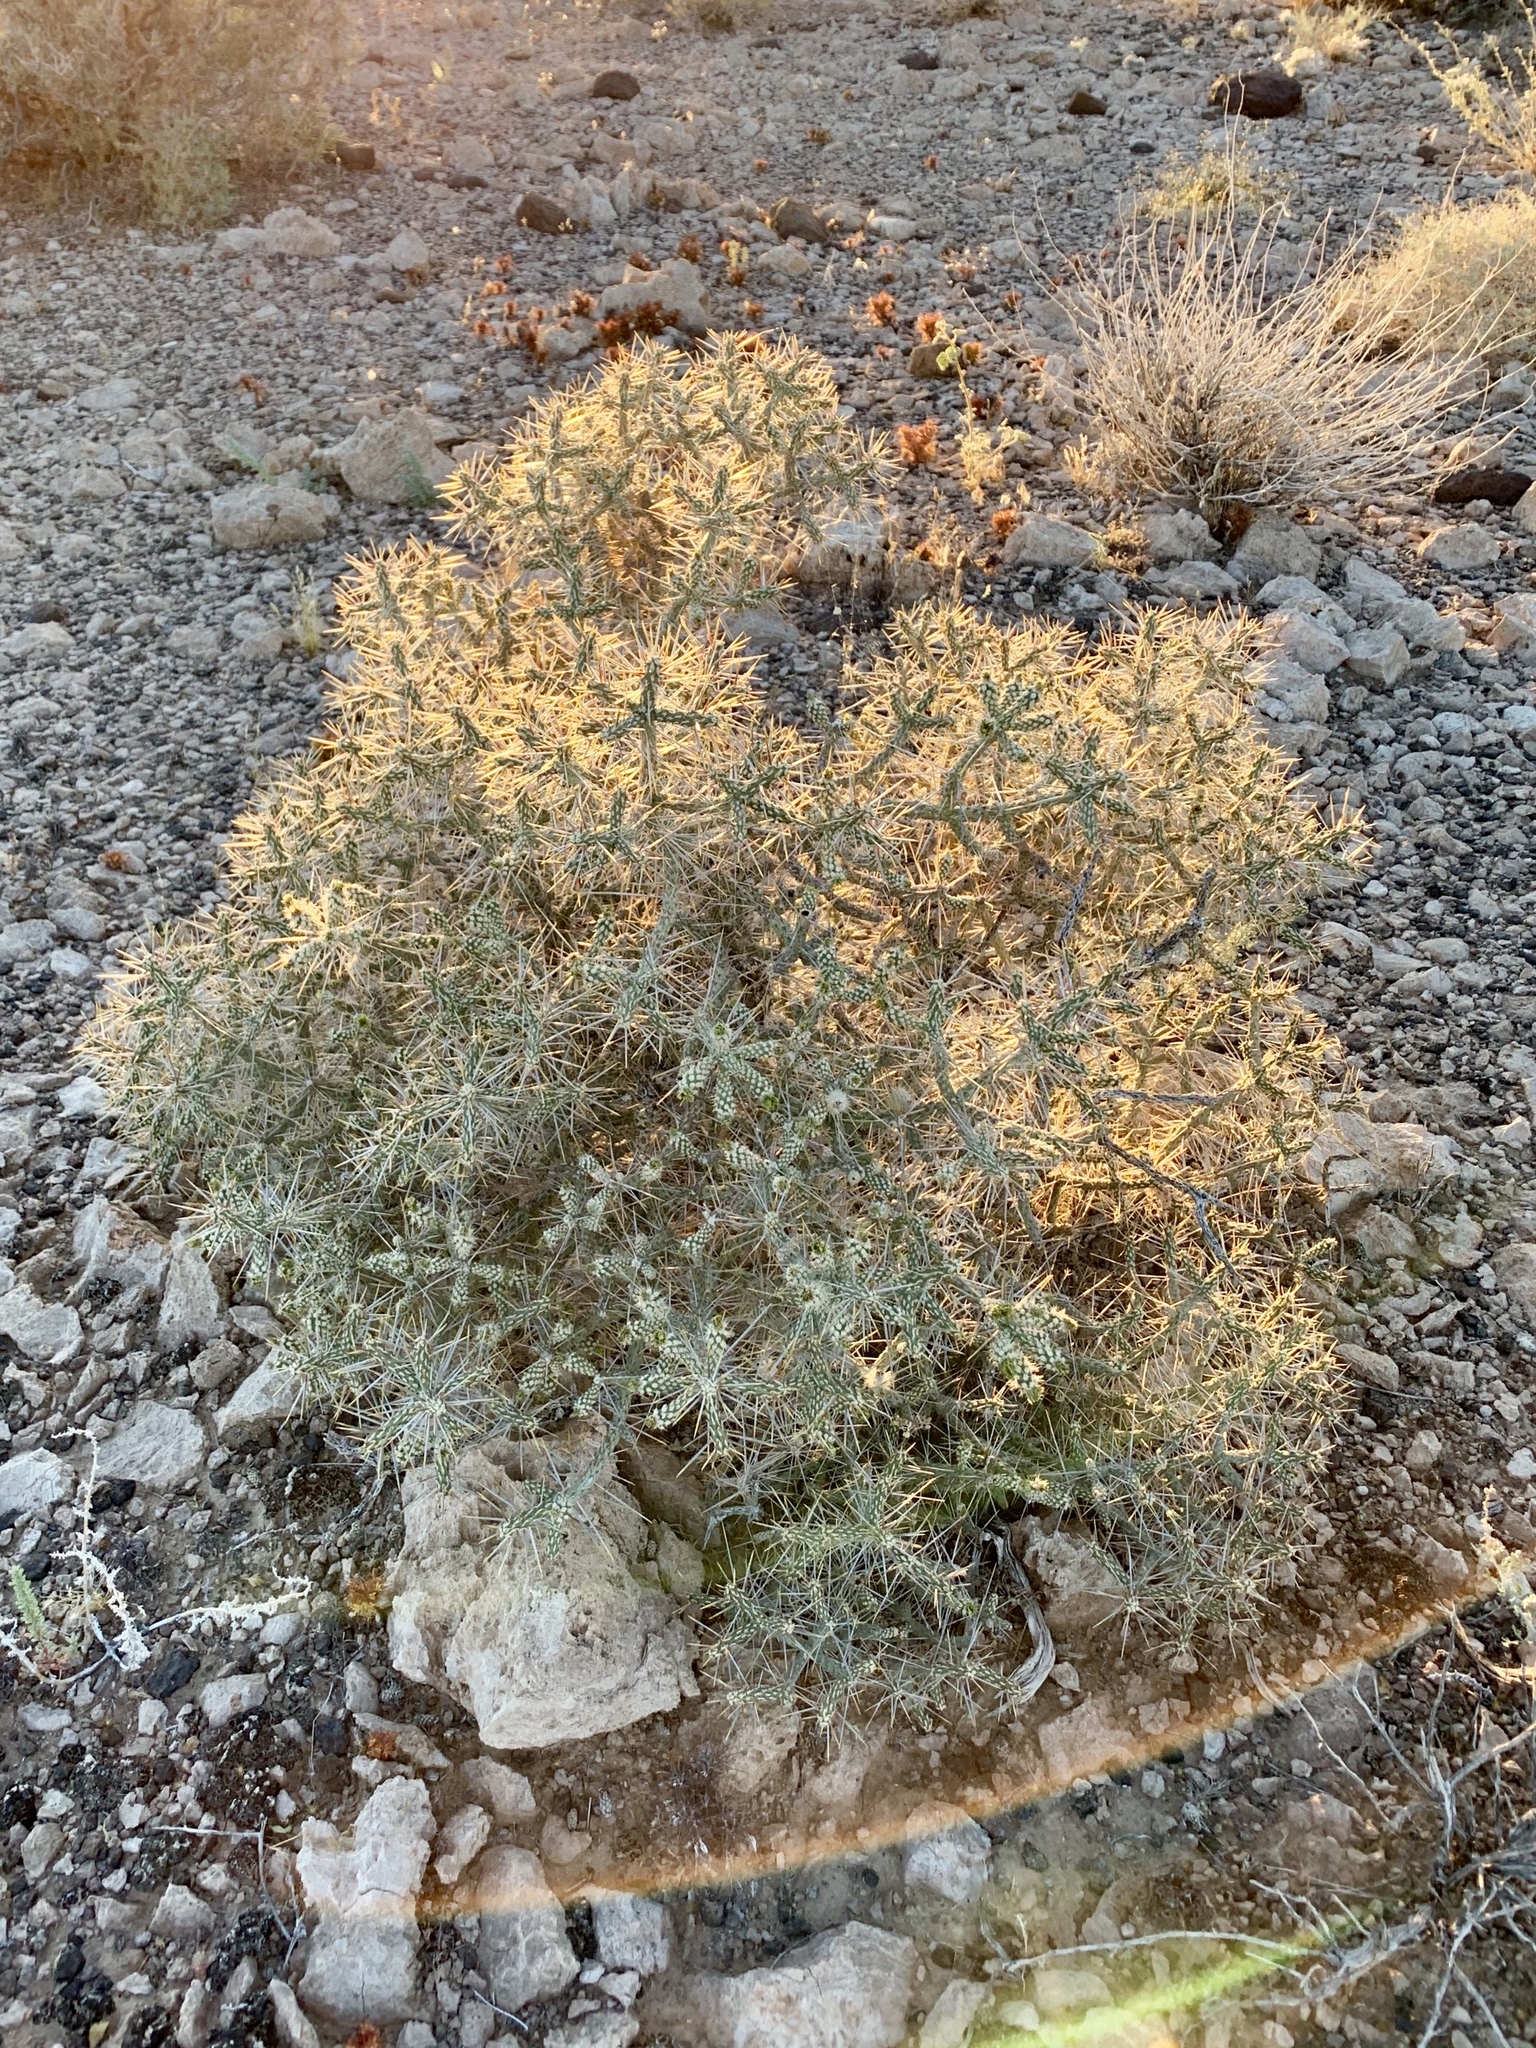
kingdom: Plantae
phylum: Tracheophyta
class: Magnoliopsida
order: Caryophyllales
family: Cactaceae
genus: Cylindropuntia
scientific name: Cylindropuntia ramosissima
